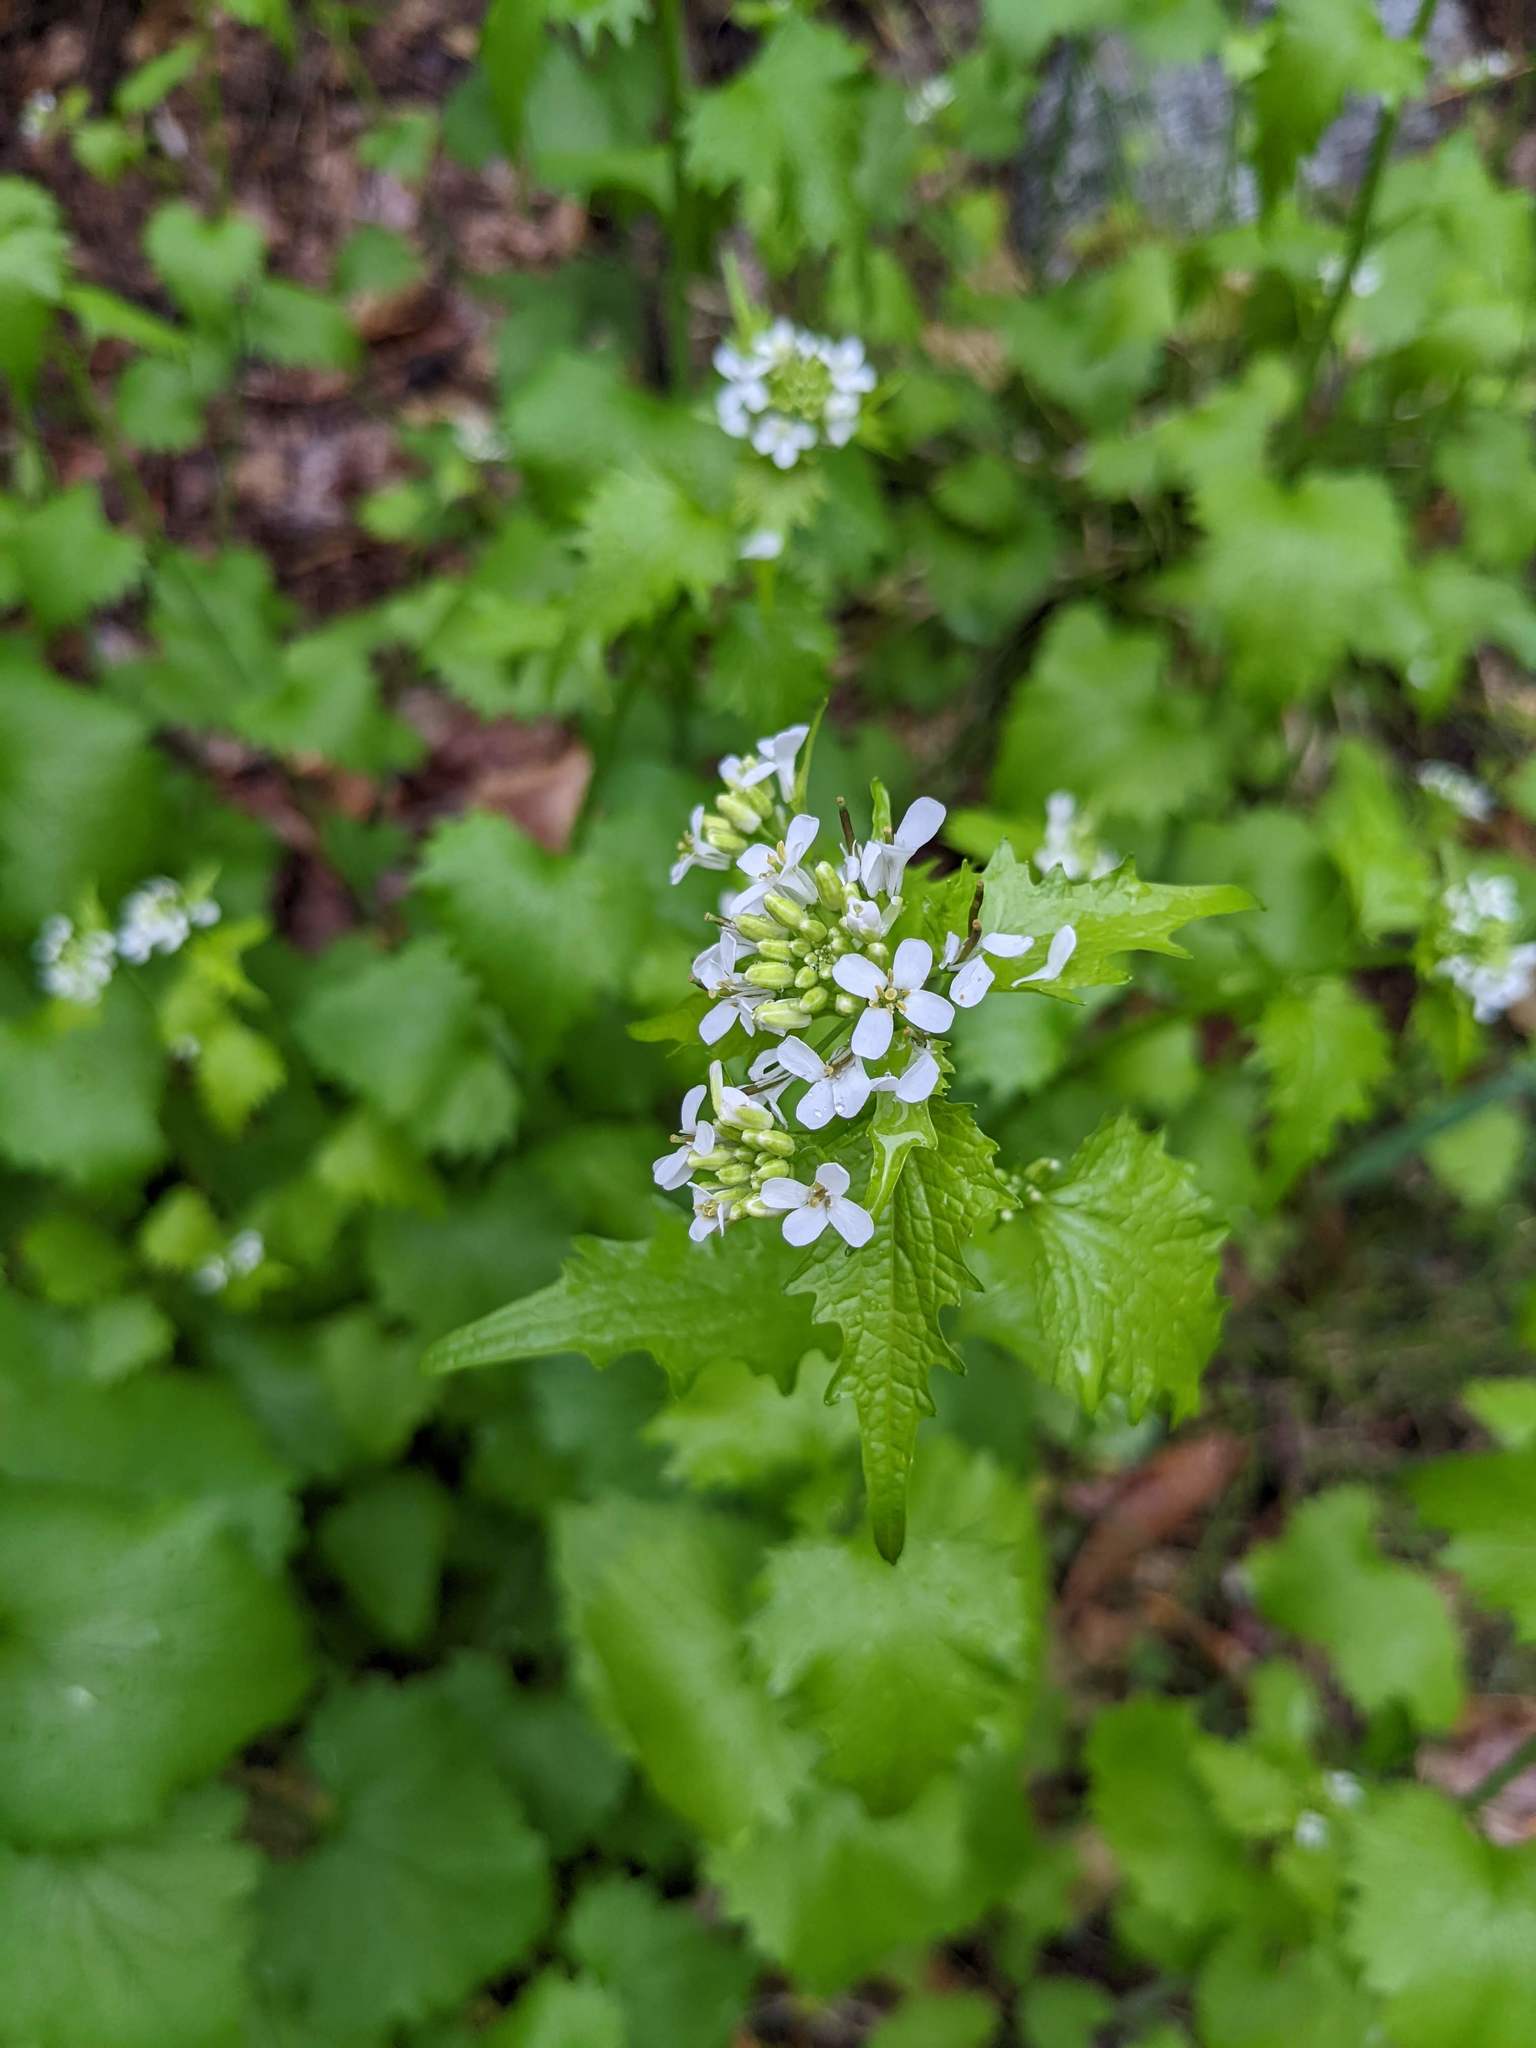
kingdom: Plantae
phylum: Tracheophyta
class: Magnoliopsida
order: Brassicales
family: Brassicaceae
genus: Alliaria
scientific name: Alliaria petiolata
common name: Garlic mustard
